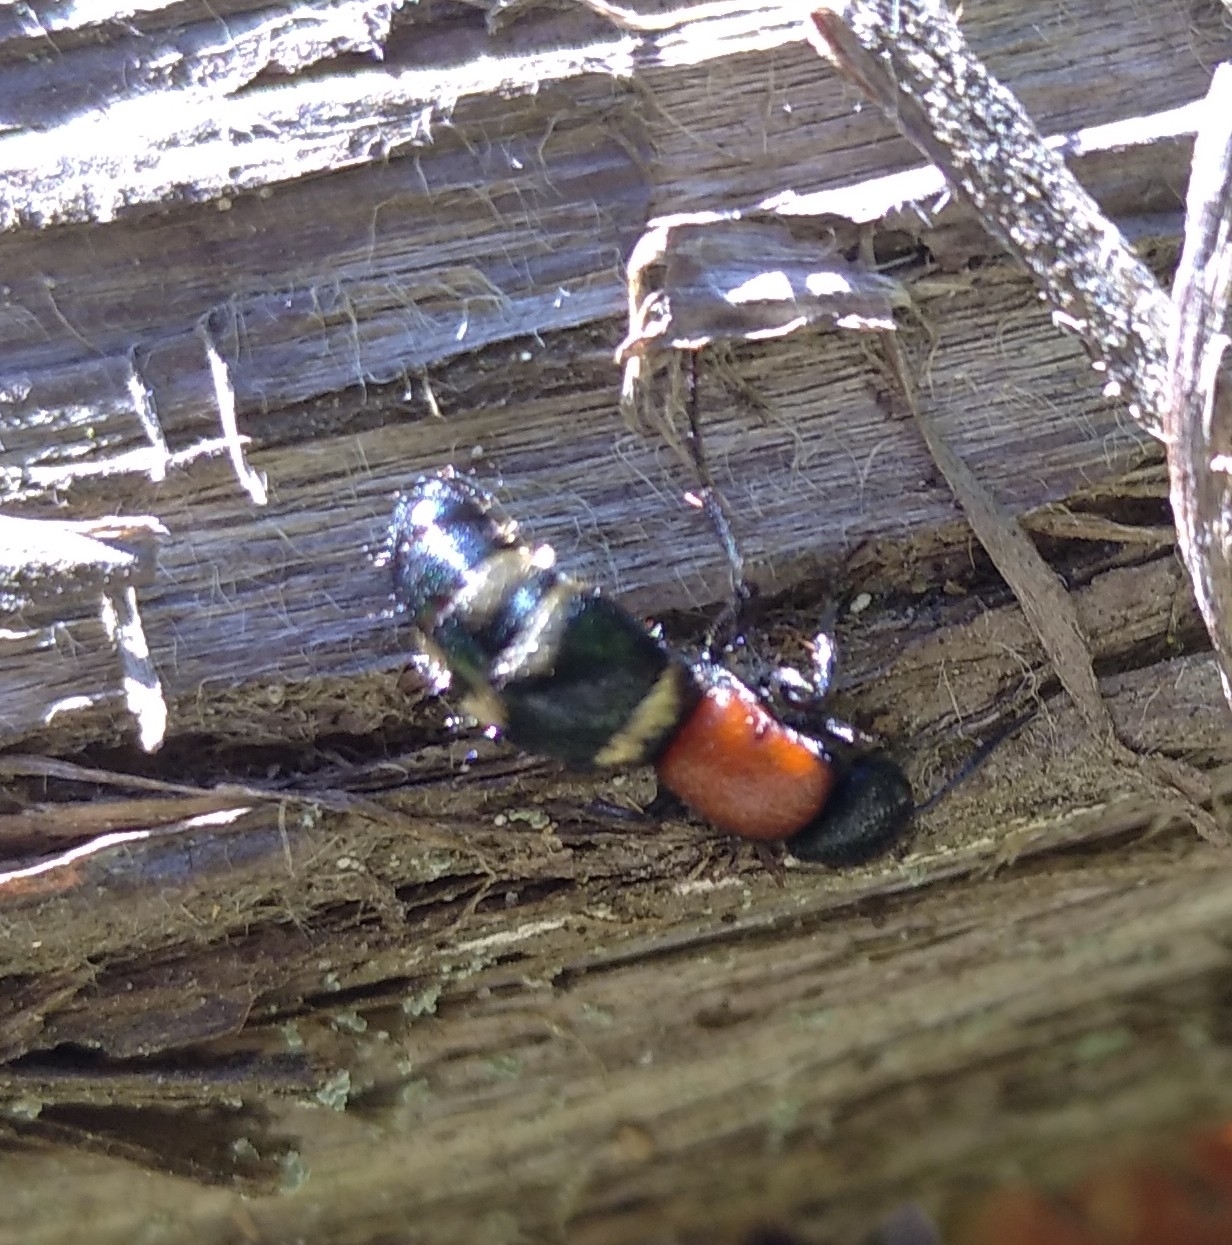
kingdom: Animalia
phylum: Arthropoda
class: Insecta
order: Hymenoptera
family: Mutillidae
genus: Mutilla
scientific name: Mutilla europaea
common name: Large velvet ant
